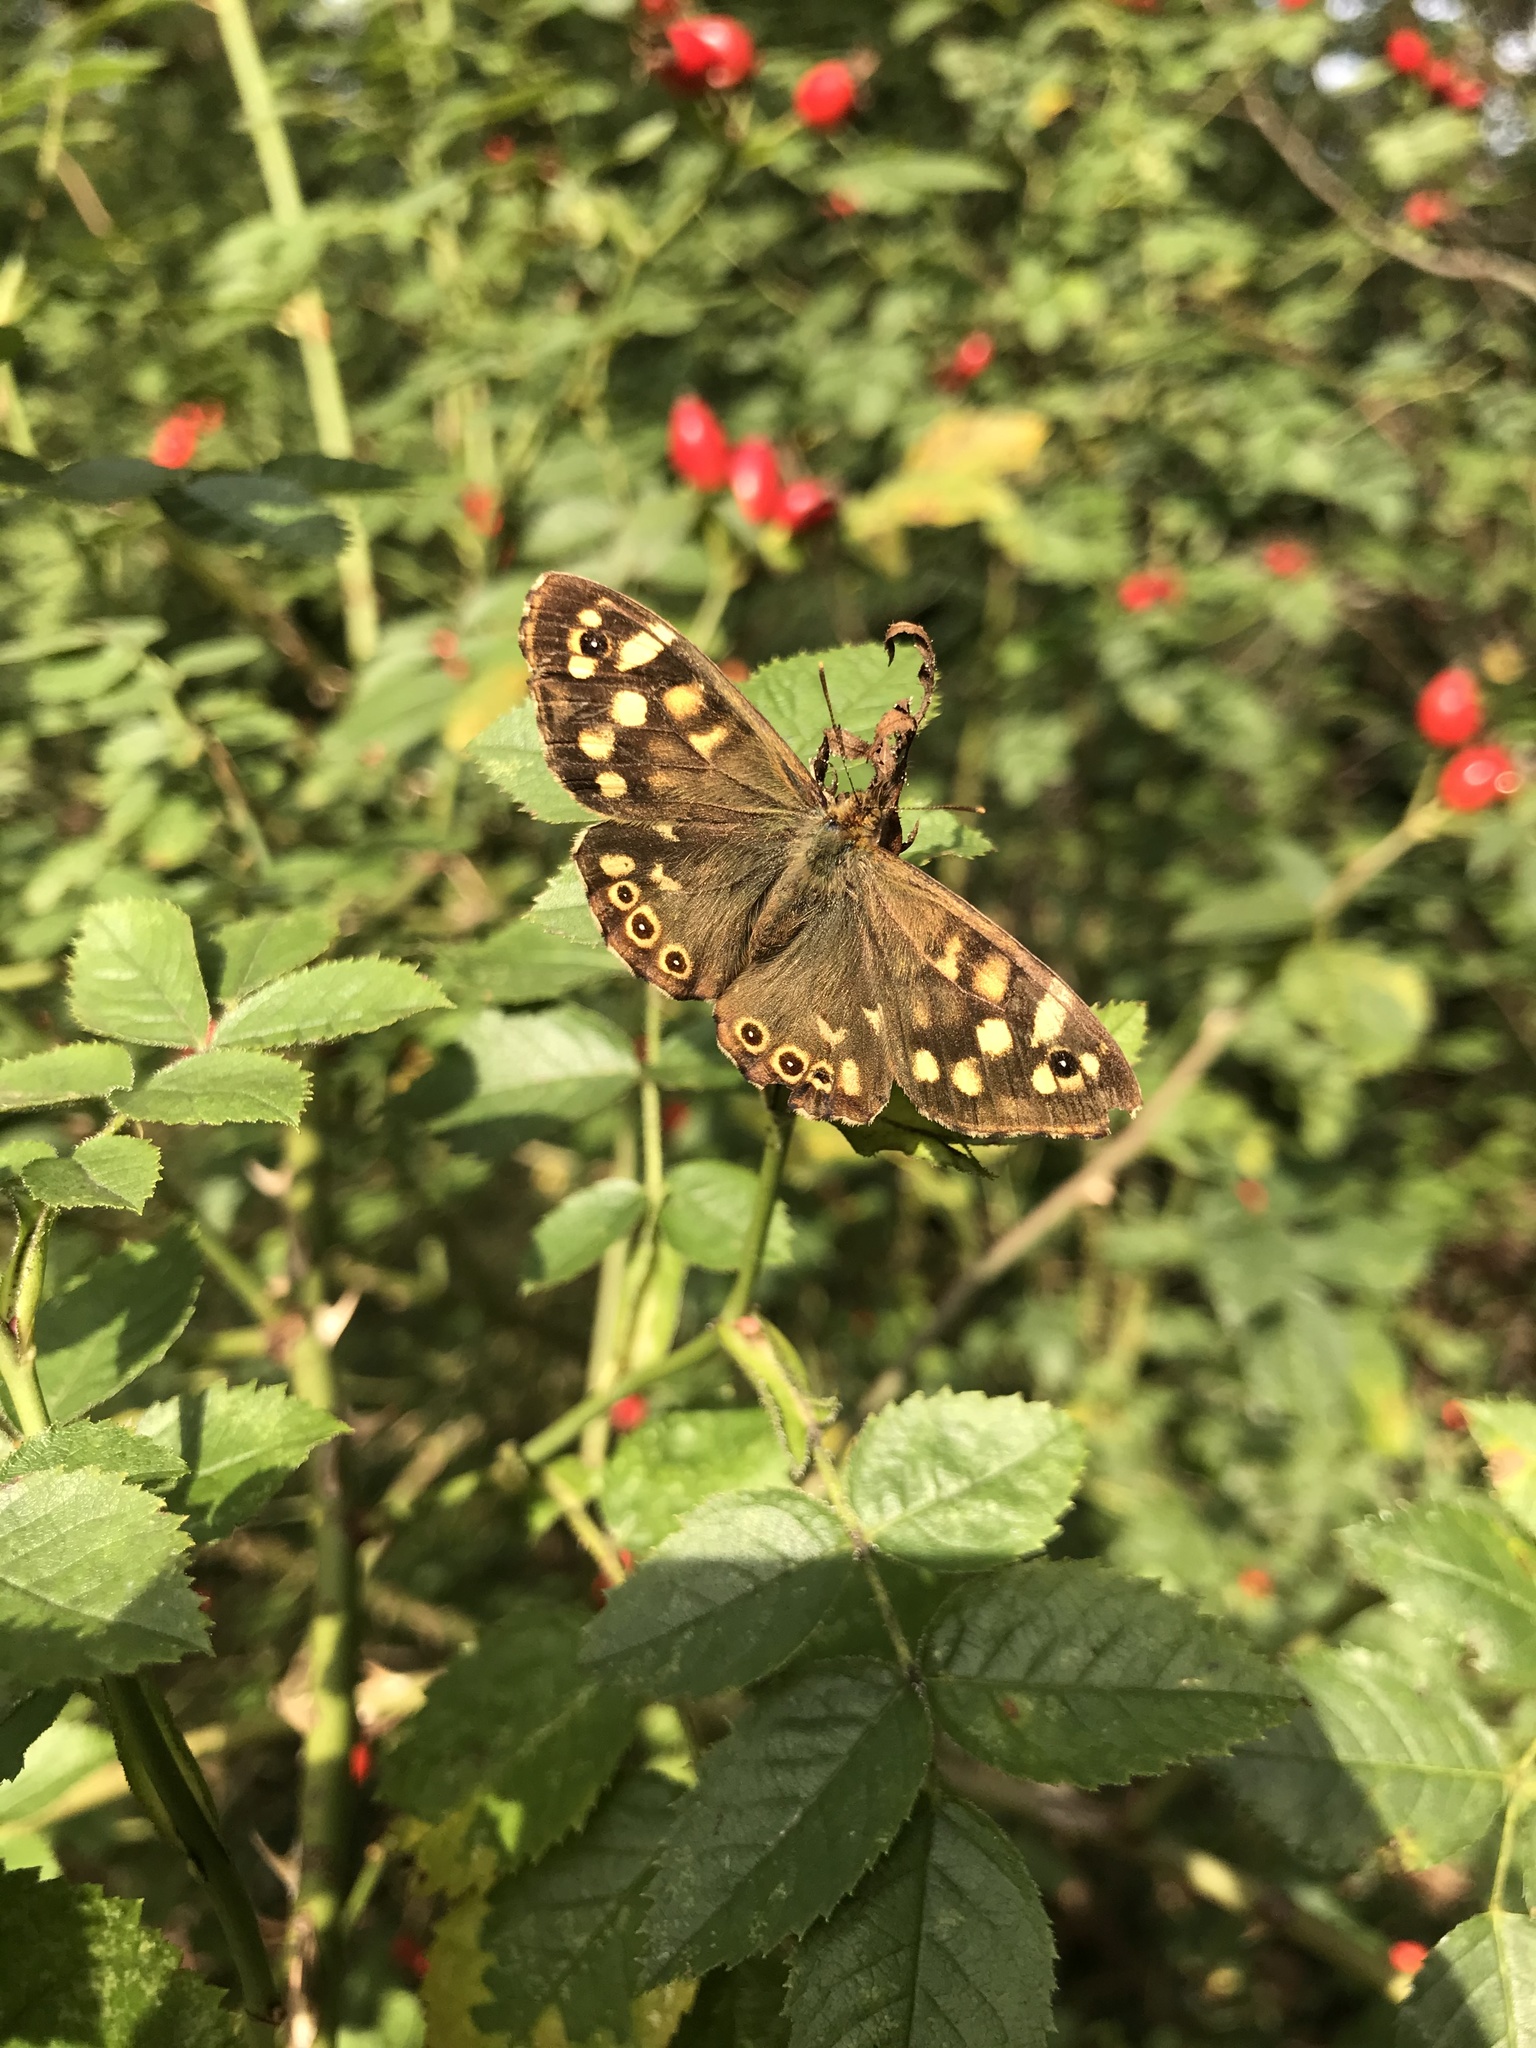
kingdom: Animalia
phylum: Arthropoda
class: Insecta
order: Lepidoptera
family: Nymphalidae
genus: Pararge
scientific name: Pararge aegeria
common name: Speckled wood
